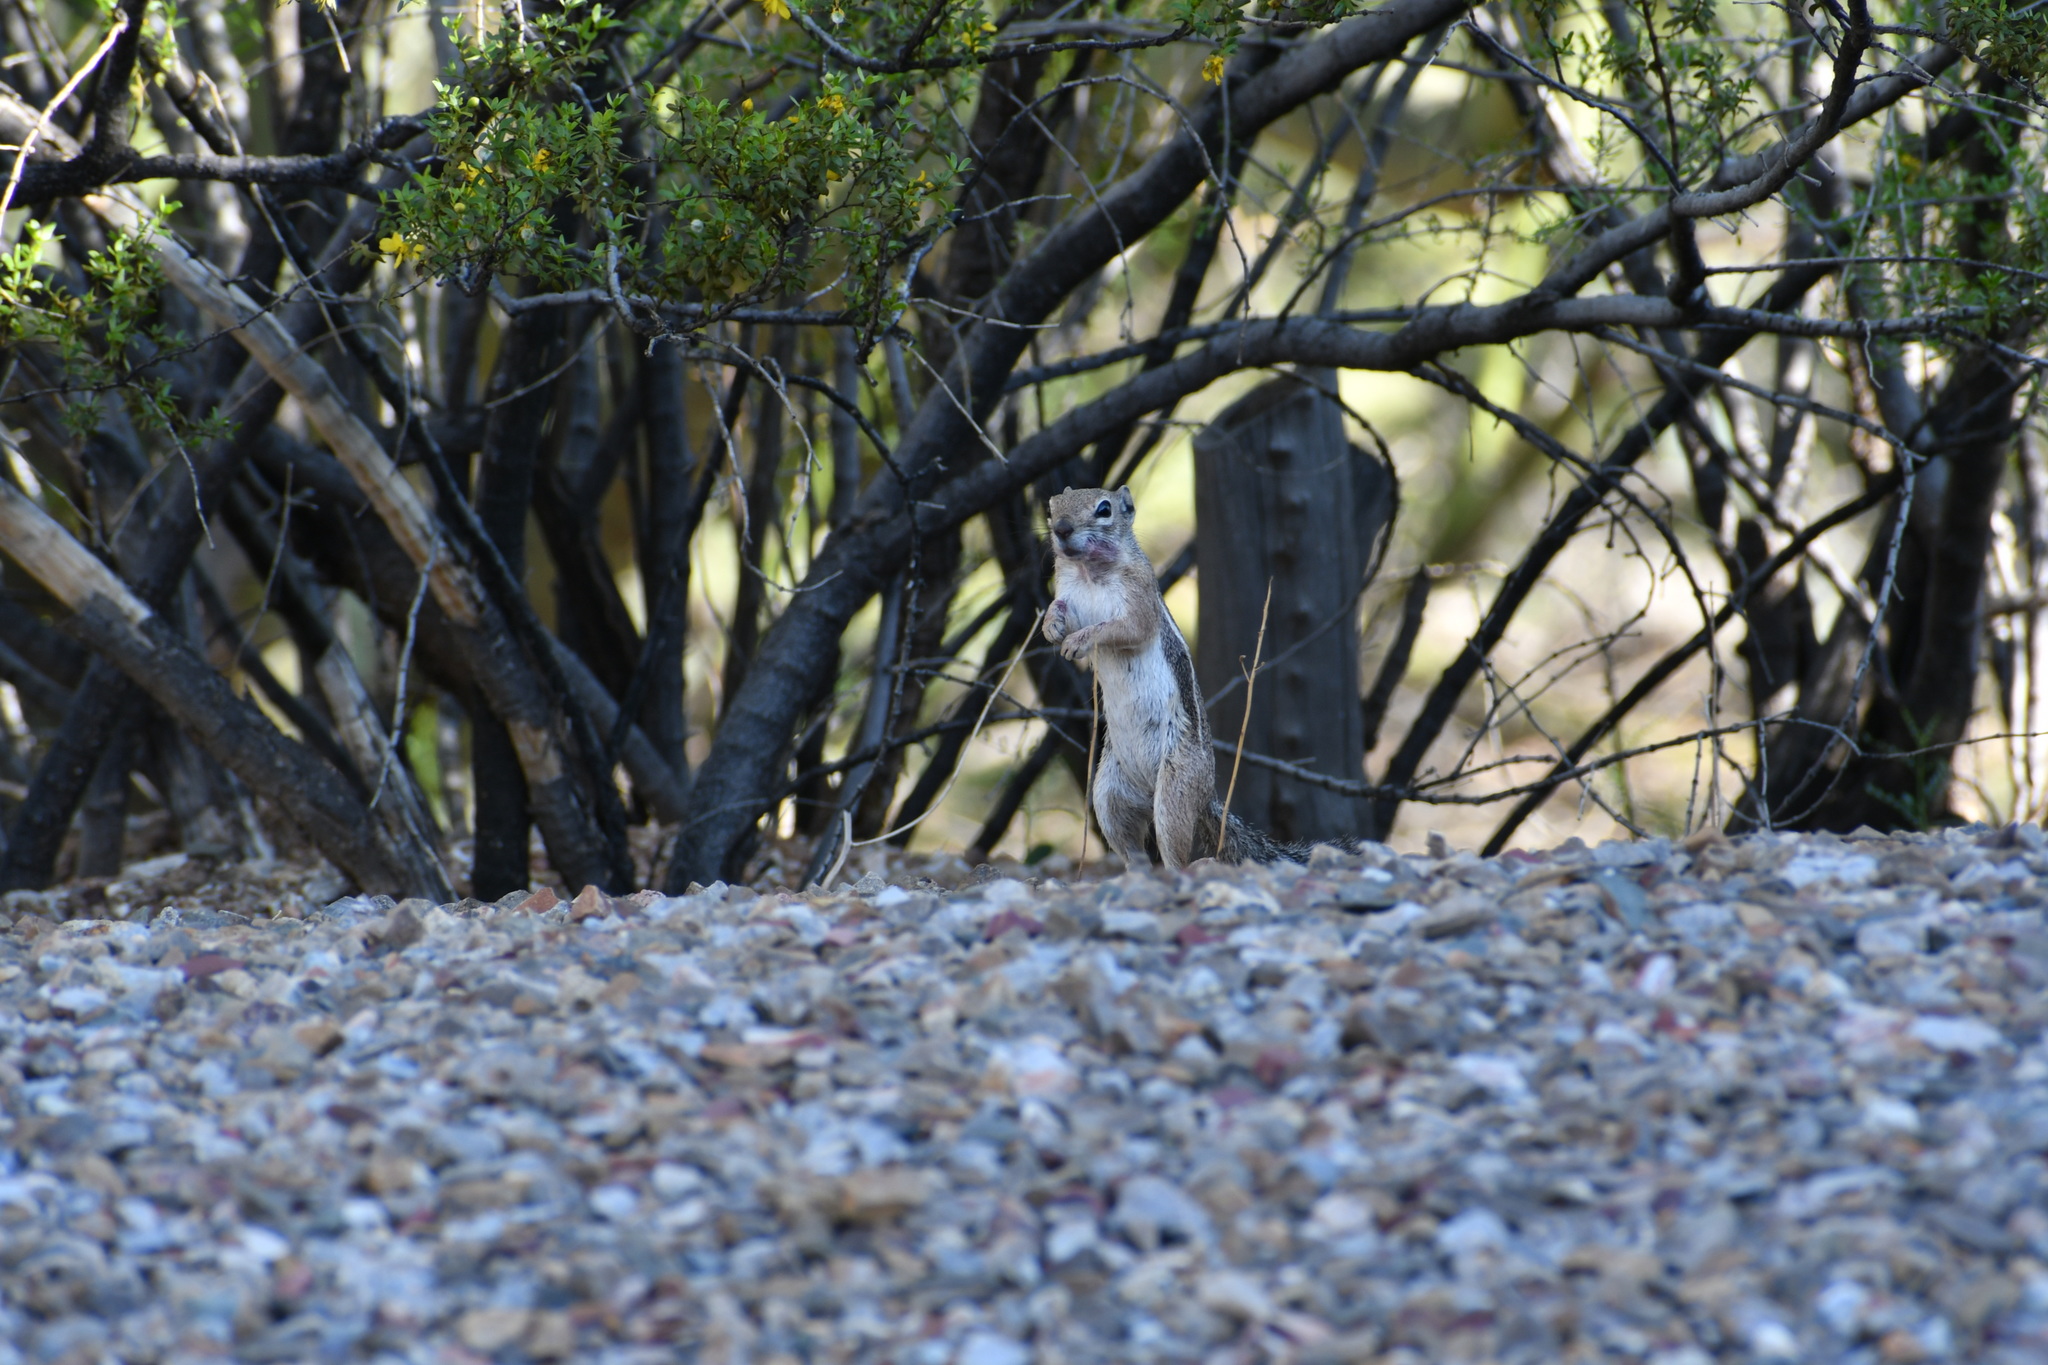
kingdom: Animalia
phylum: Chordata
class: Mammalia
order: Rodentia
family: Sciuridae
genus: Ammospermophilus
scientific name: Ammospermophilus harrisii
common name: Harris's antelope squirrel
